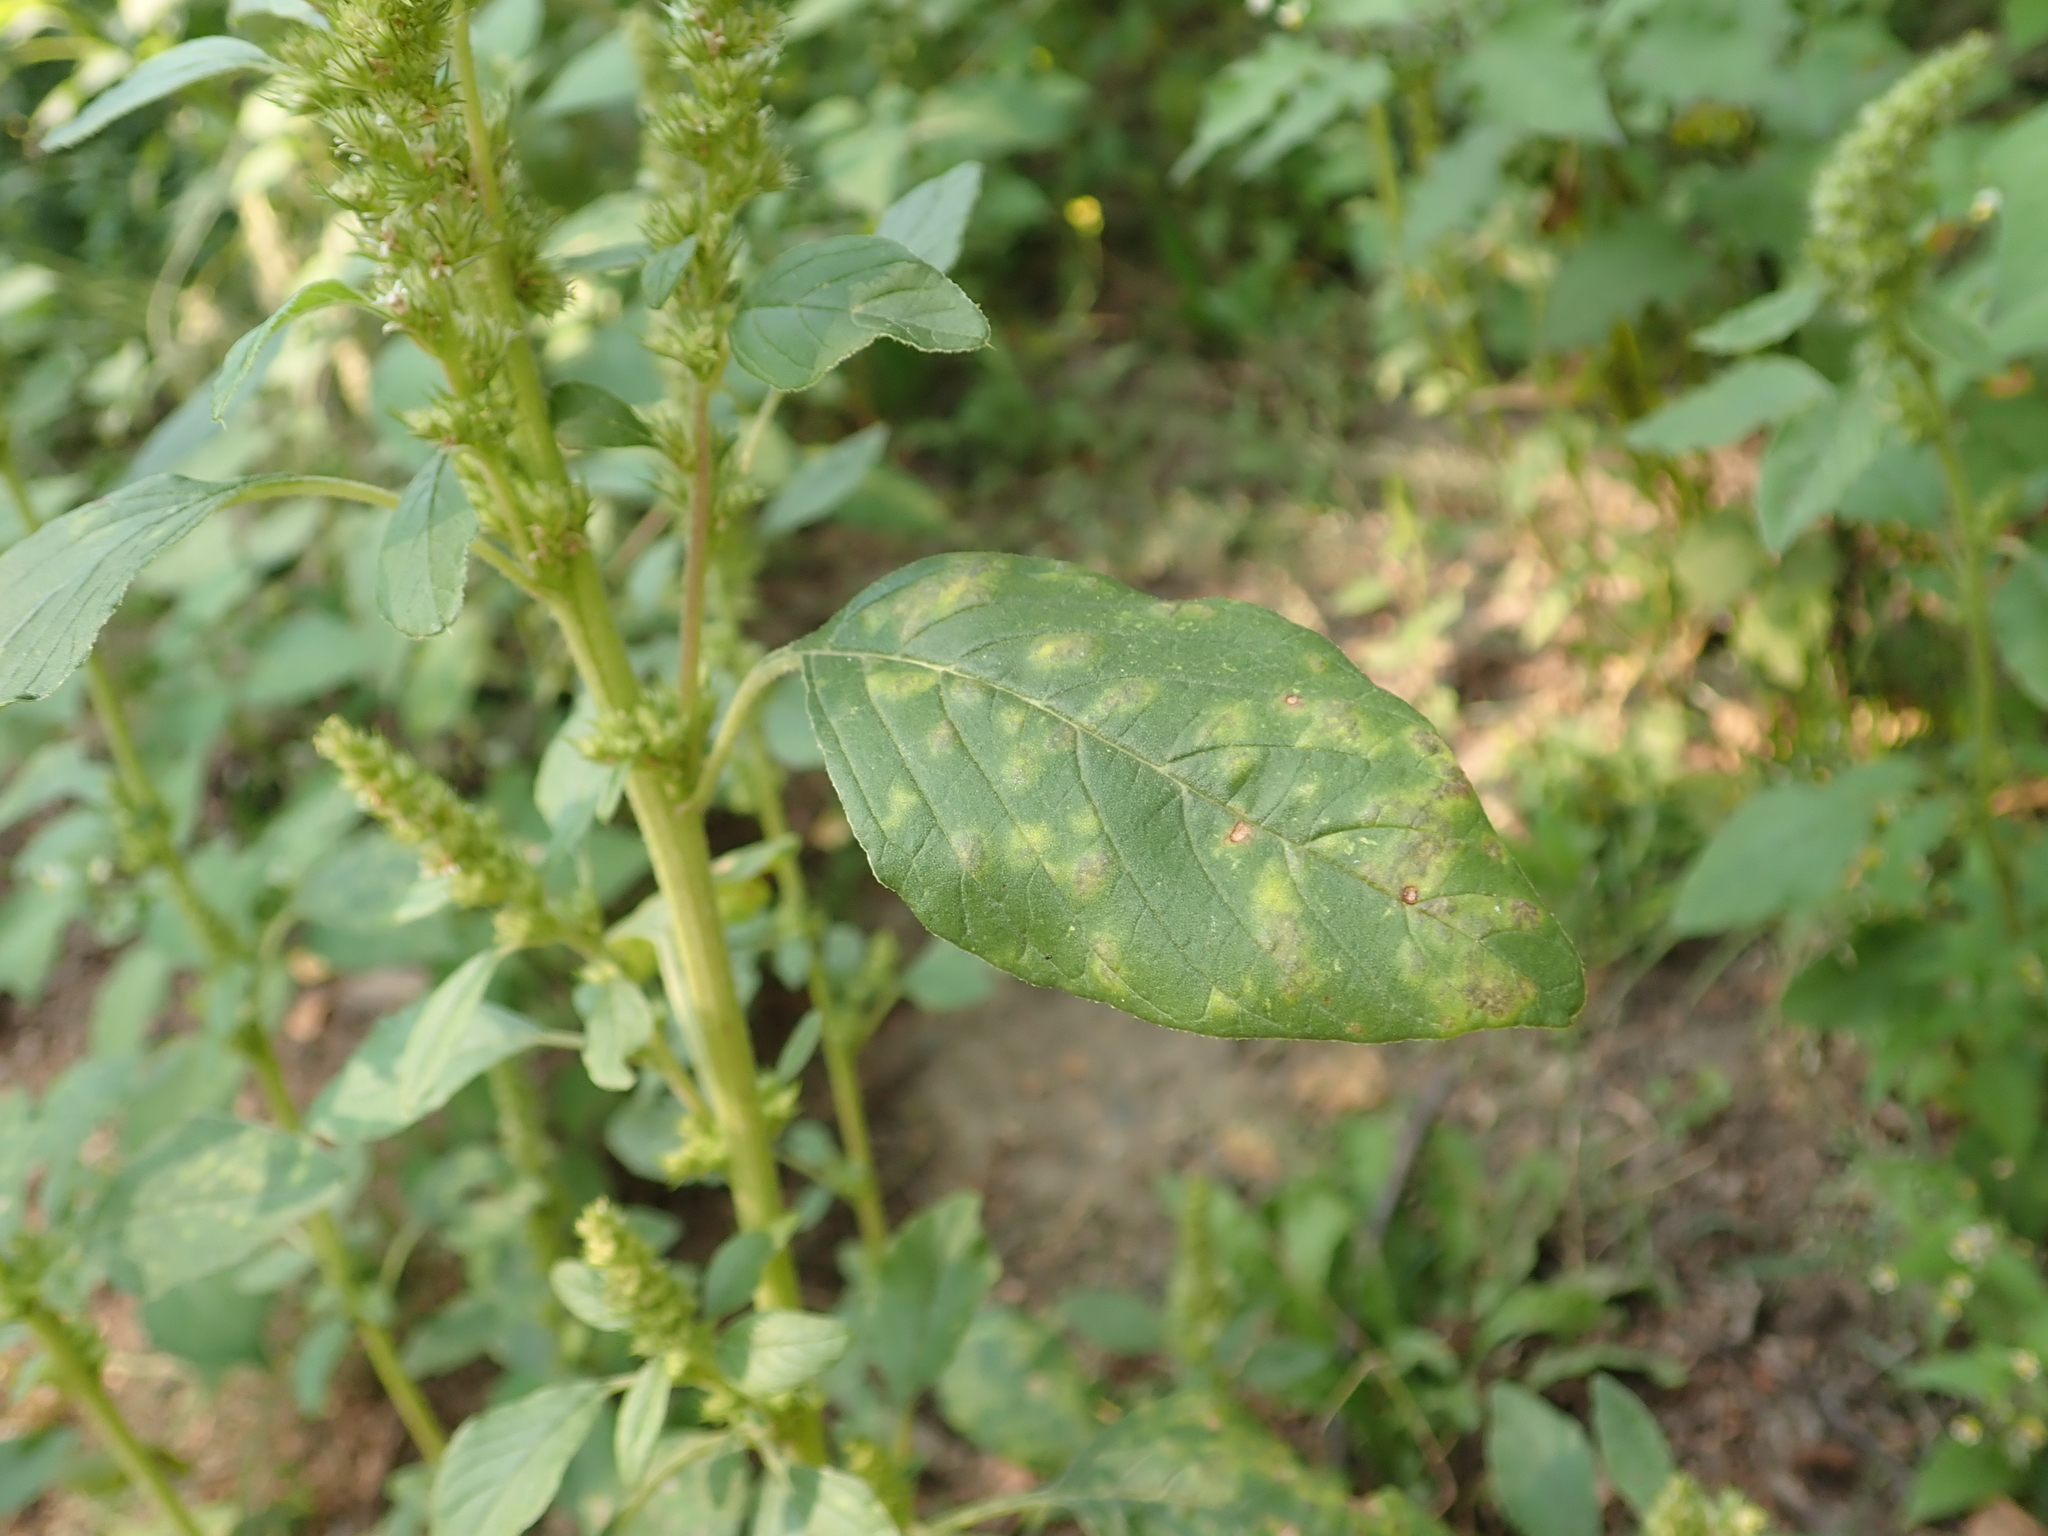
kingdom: Plantae
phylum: Tracheophyta
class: Magnoliopsida
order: Caryophyllales
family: Amaranthaceae
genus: Amaranthus
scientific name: Amaranthus retroflexus
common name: Redroot amaranth
